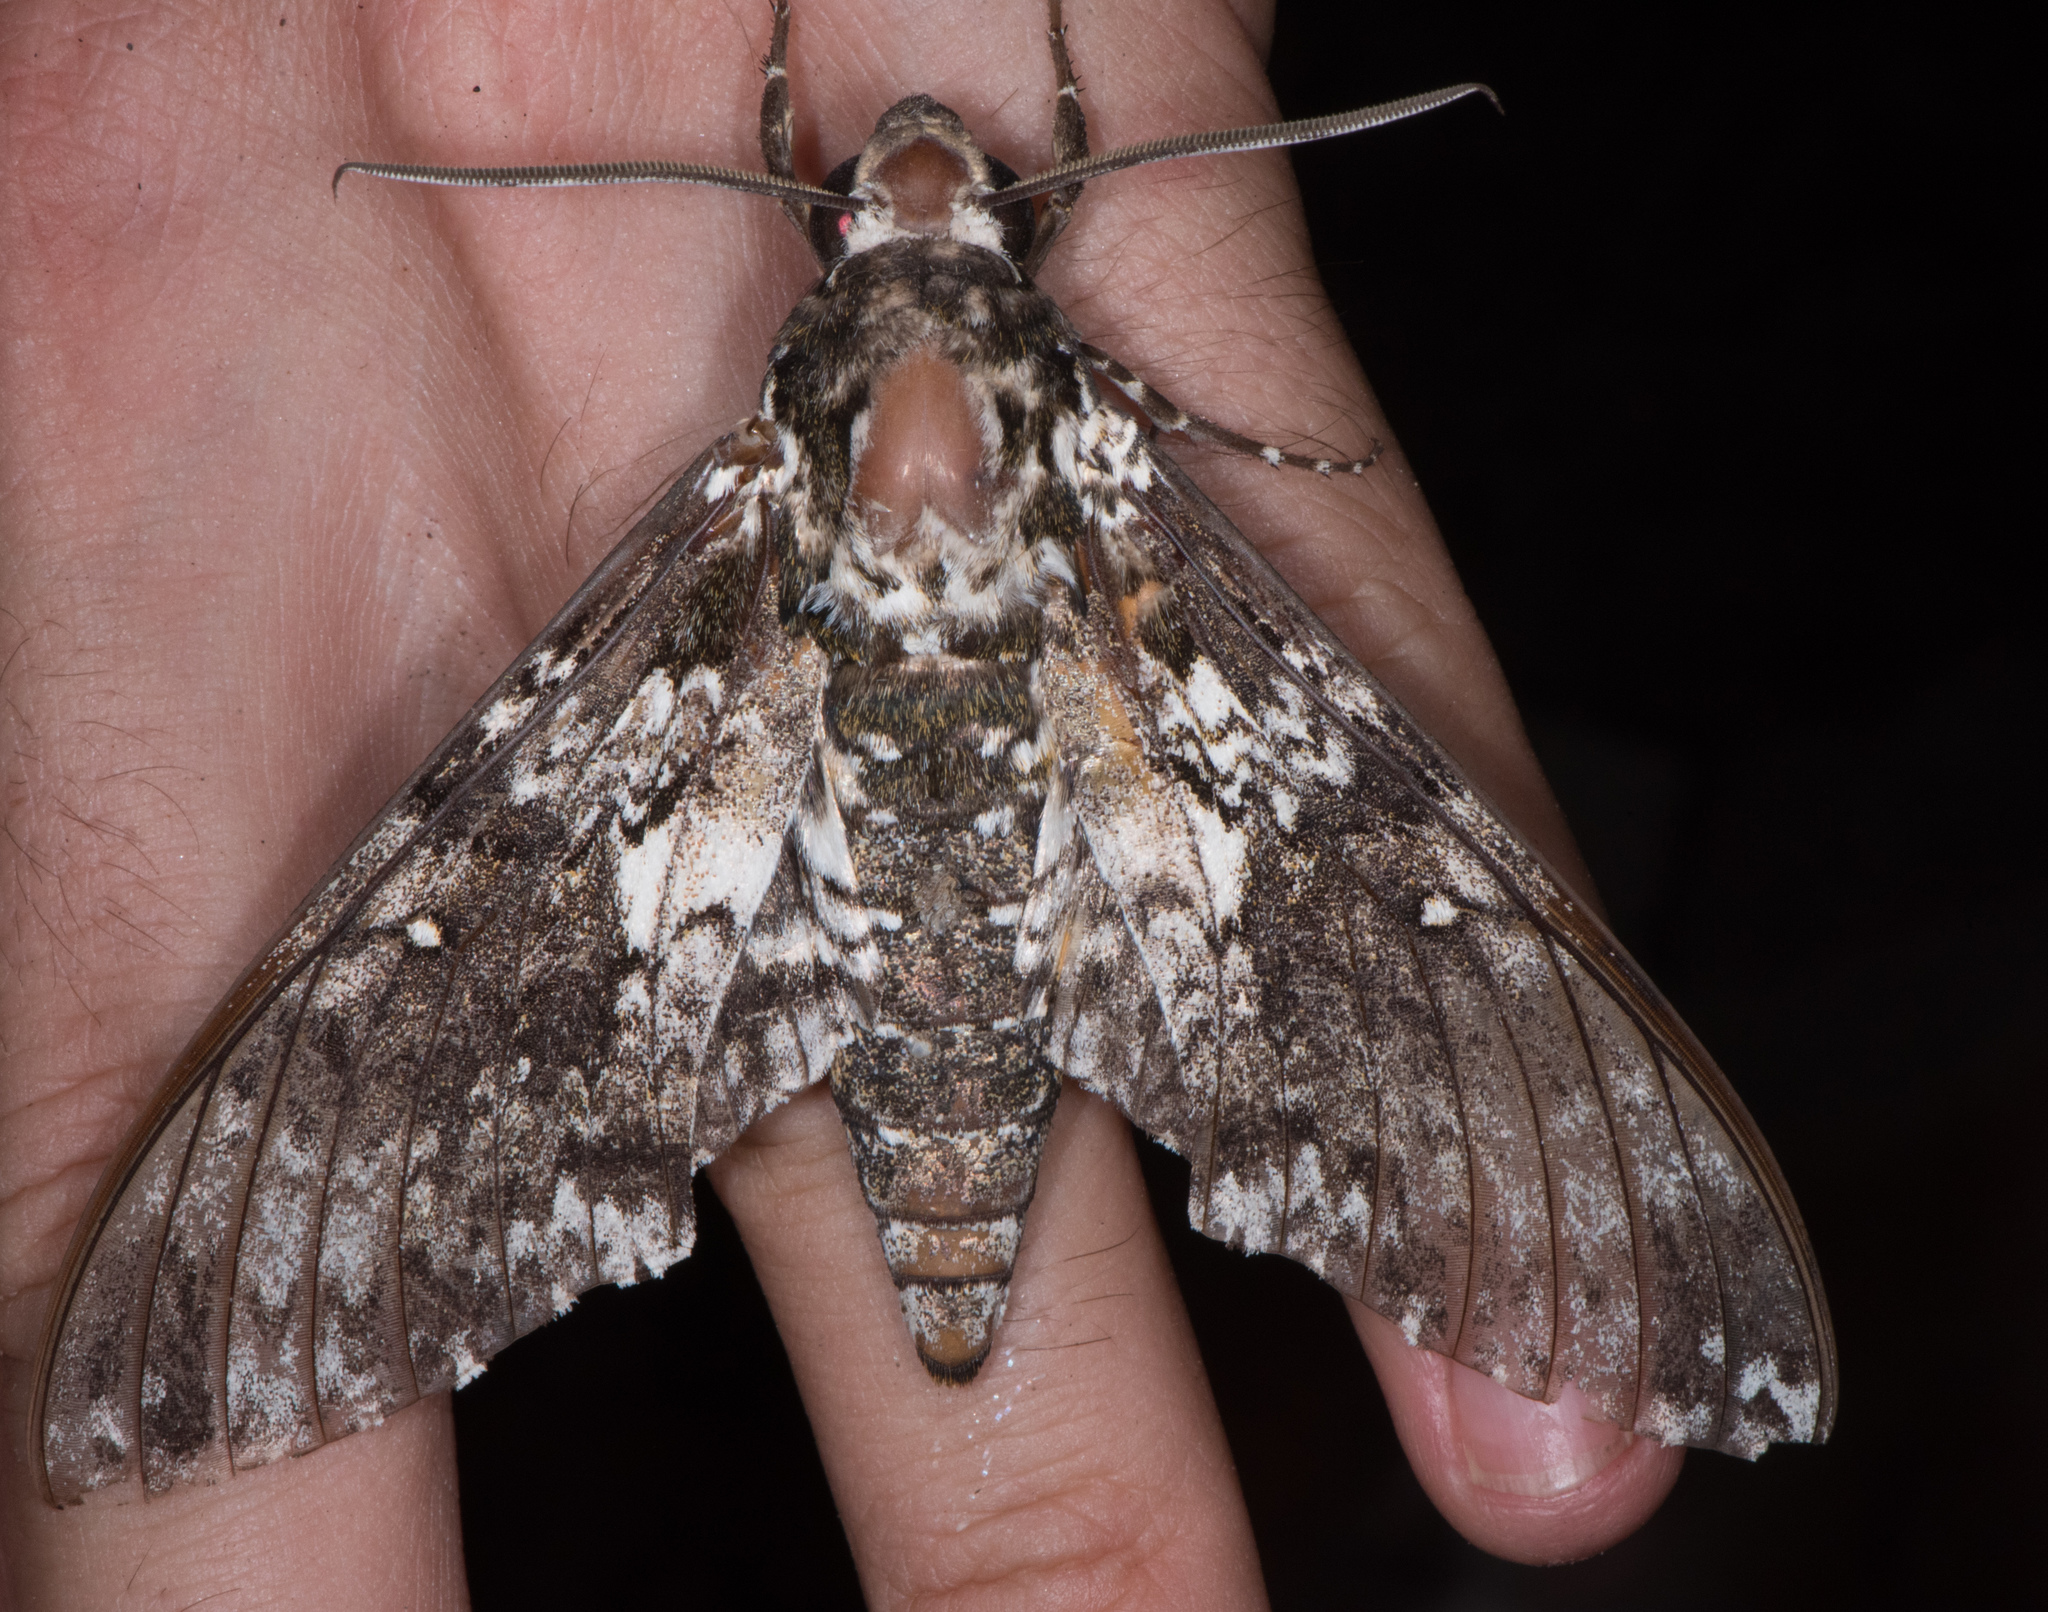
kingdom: Animalia
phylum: Arthropoda
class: Insecta
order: Lepidoptera
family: Sphingidae
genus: Manduca
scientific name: Manduca rustica
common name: Rustic sphinx
